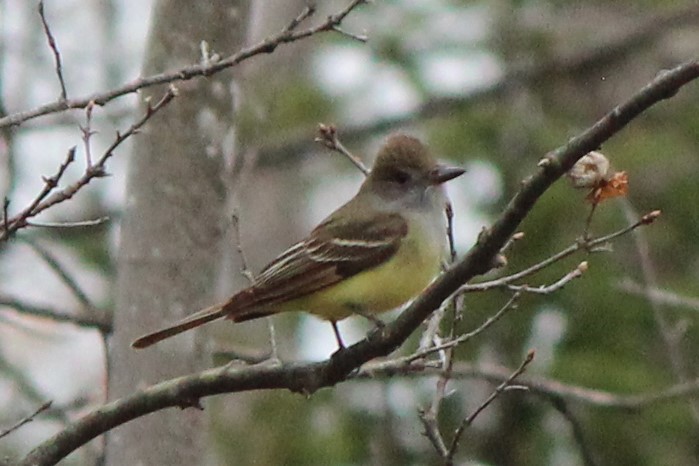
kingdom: Animalia
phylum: Chordata
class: Aves
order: Passeriformes
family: Tyrannidae
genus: Myiarchus
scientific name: Myiarchus crinitus
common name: Great crested flycatcher
